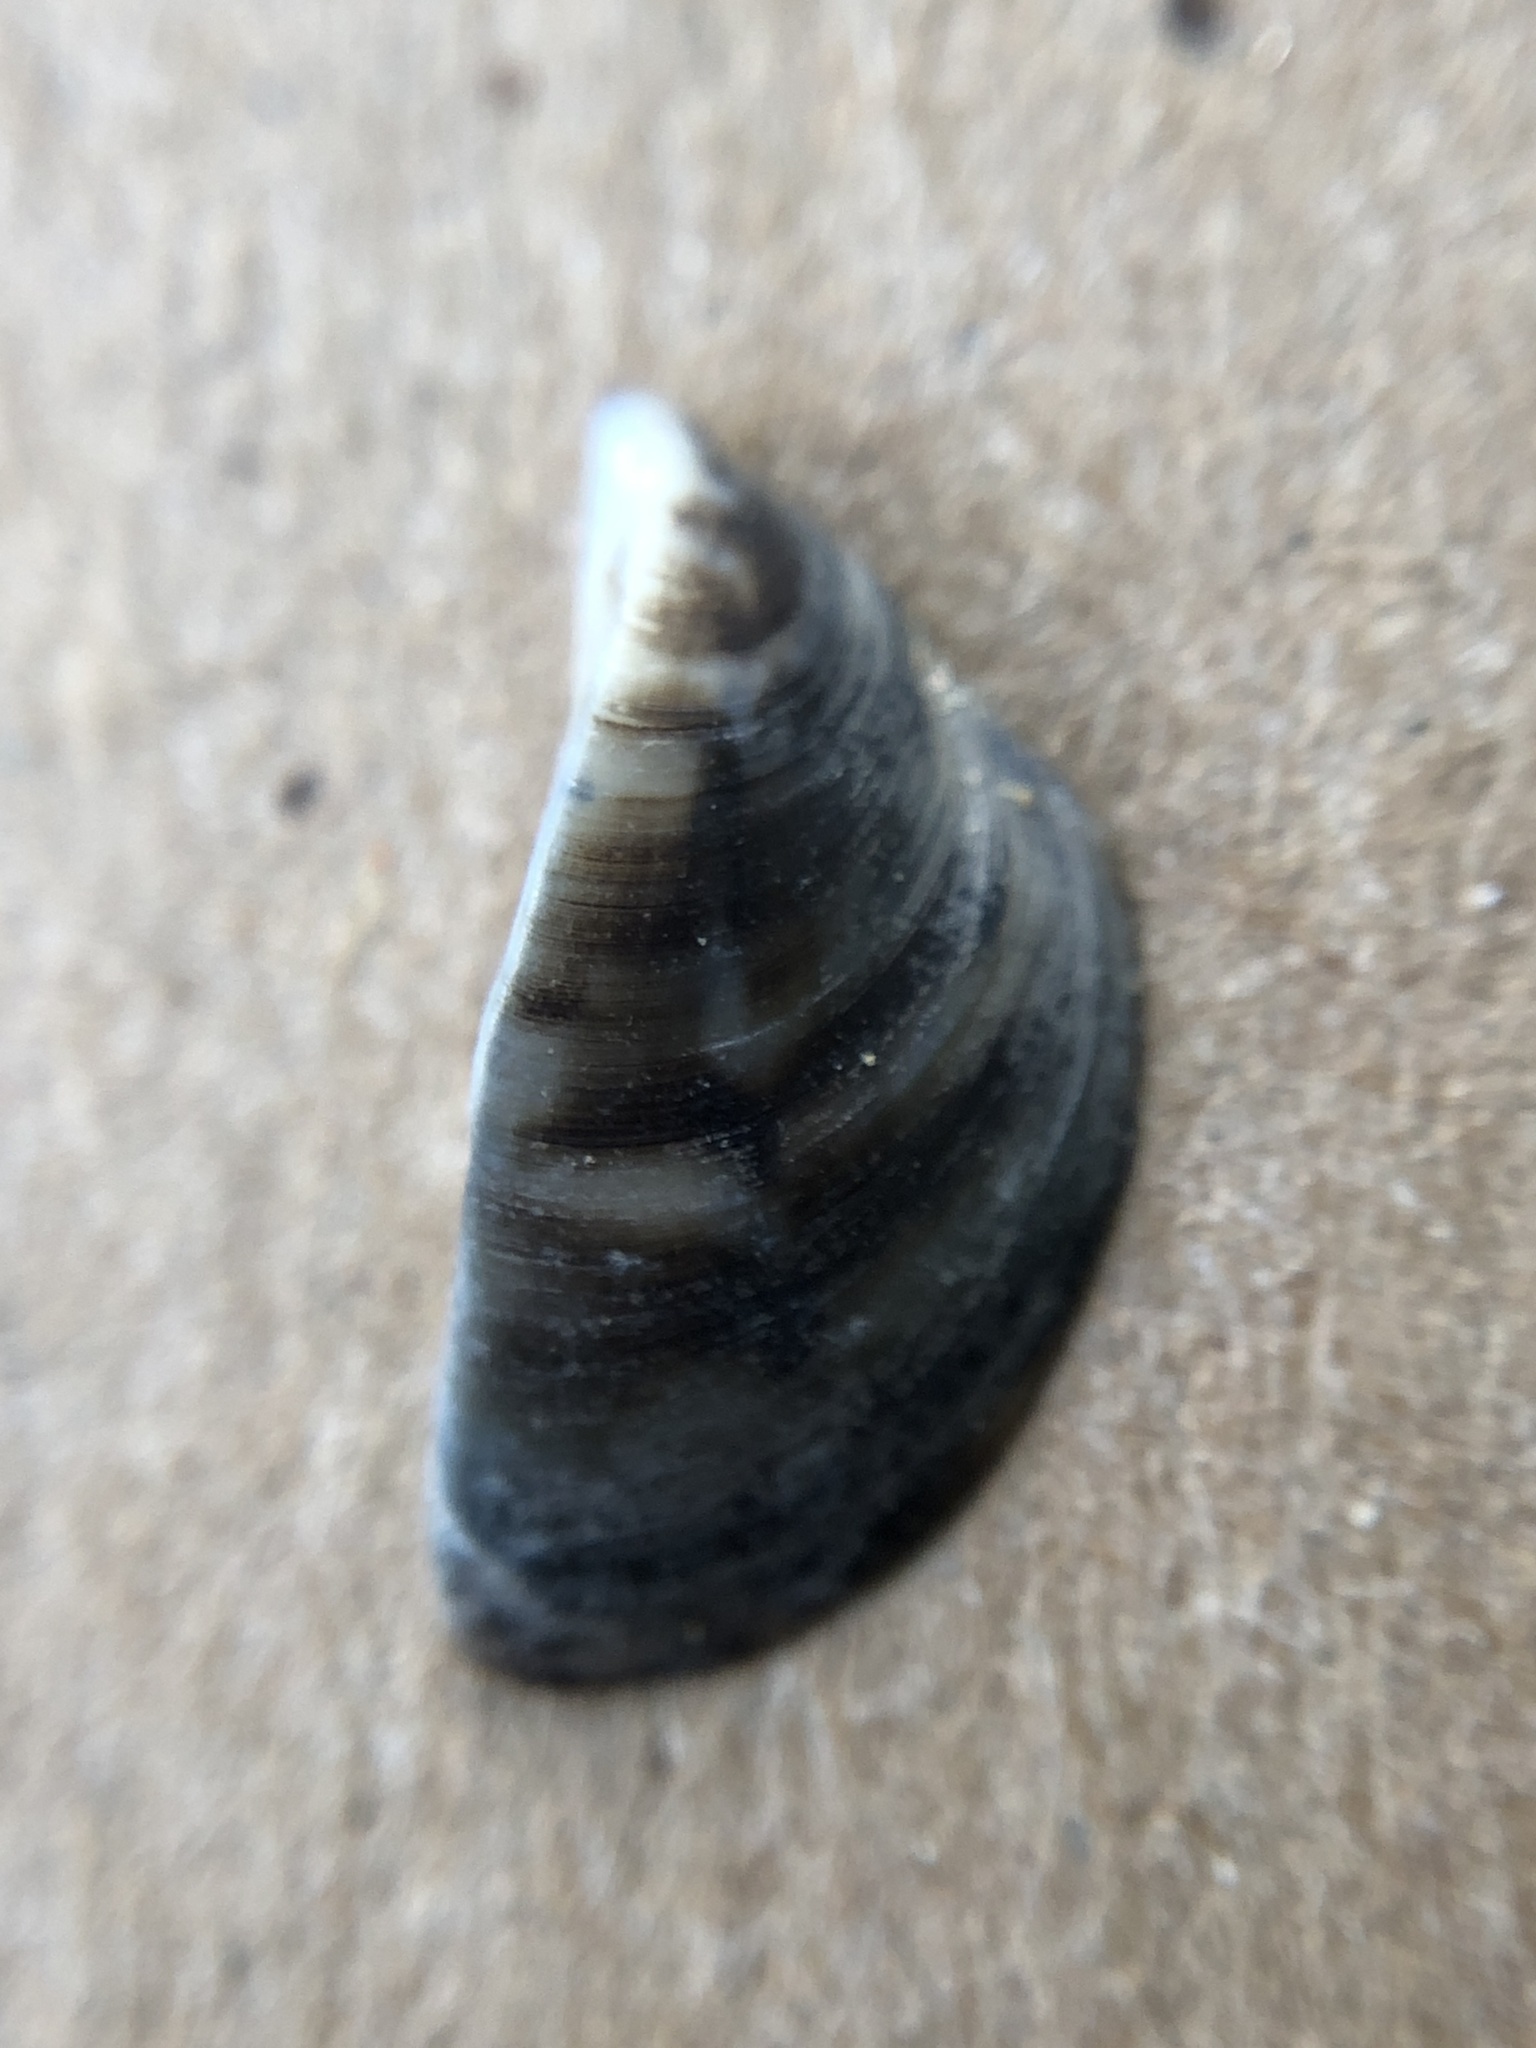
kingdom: Animalia
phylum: Mollusca
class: Bivalvia
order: Myida
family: Dreissenidae
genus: Dreissena
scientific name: Dreissena polymorpha
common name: Zebra mussel
